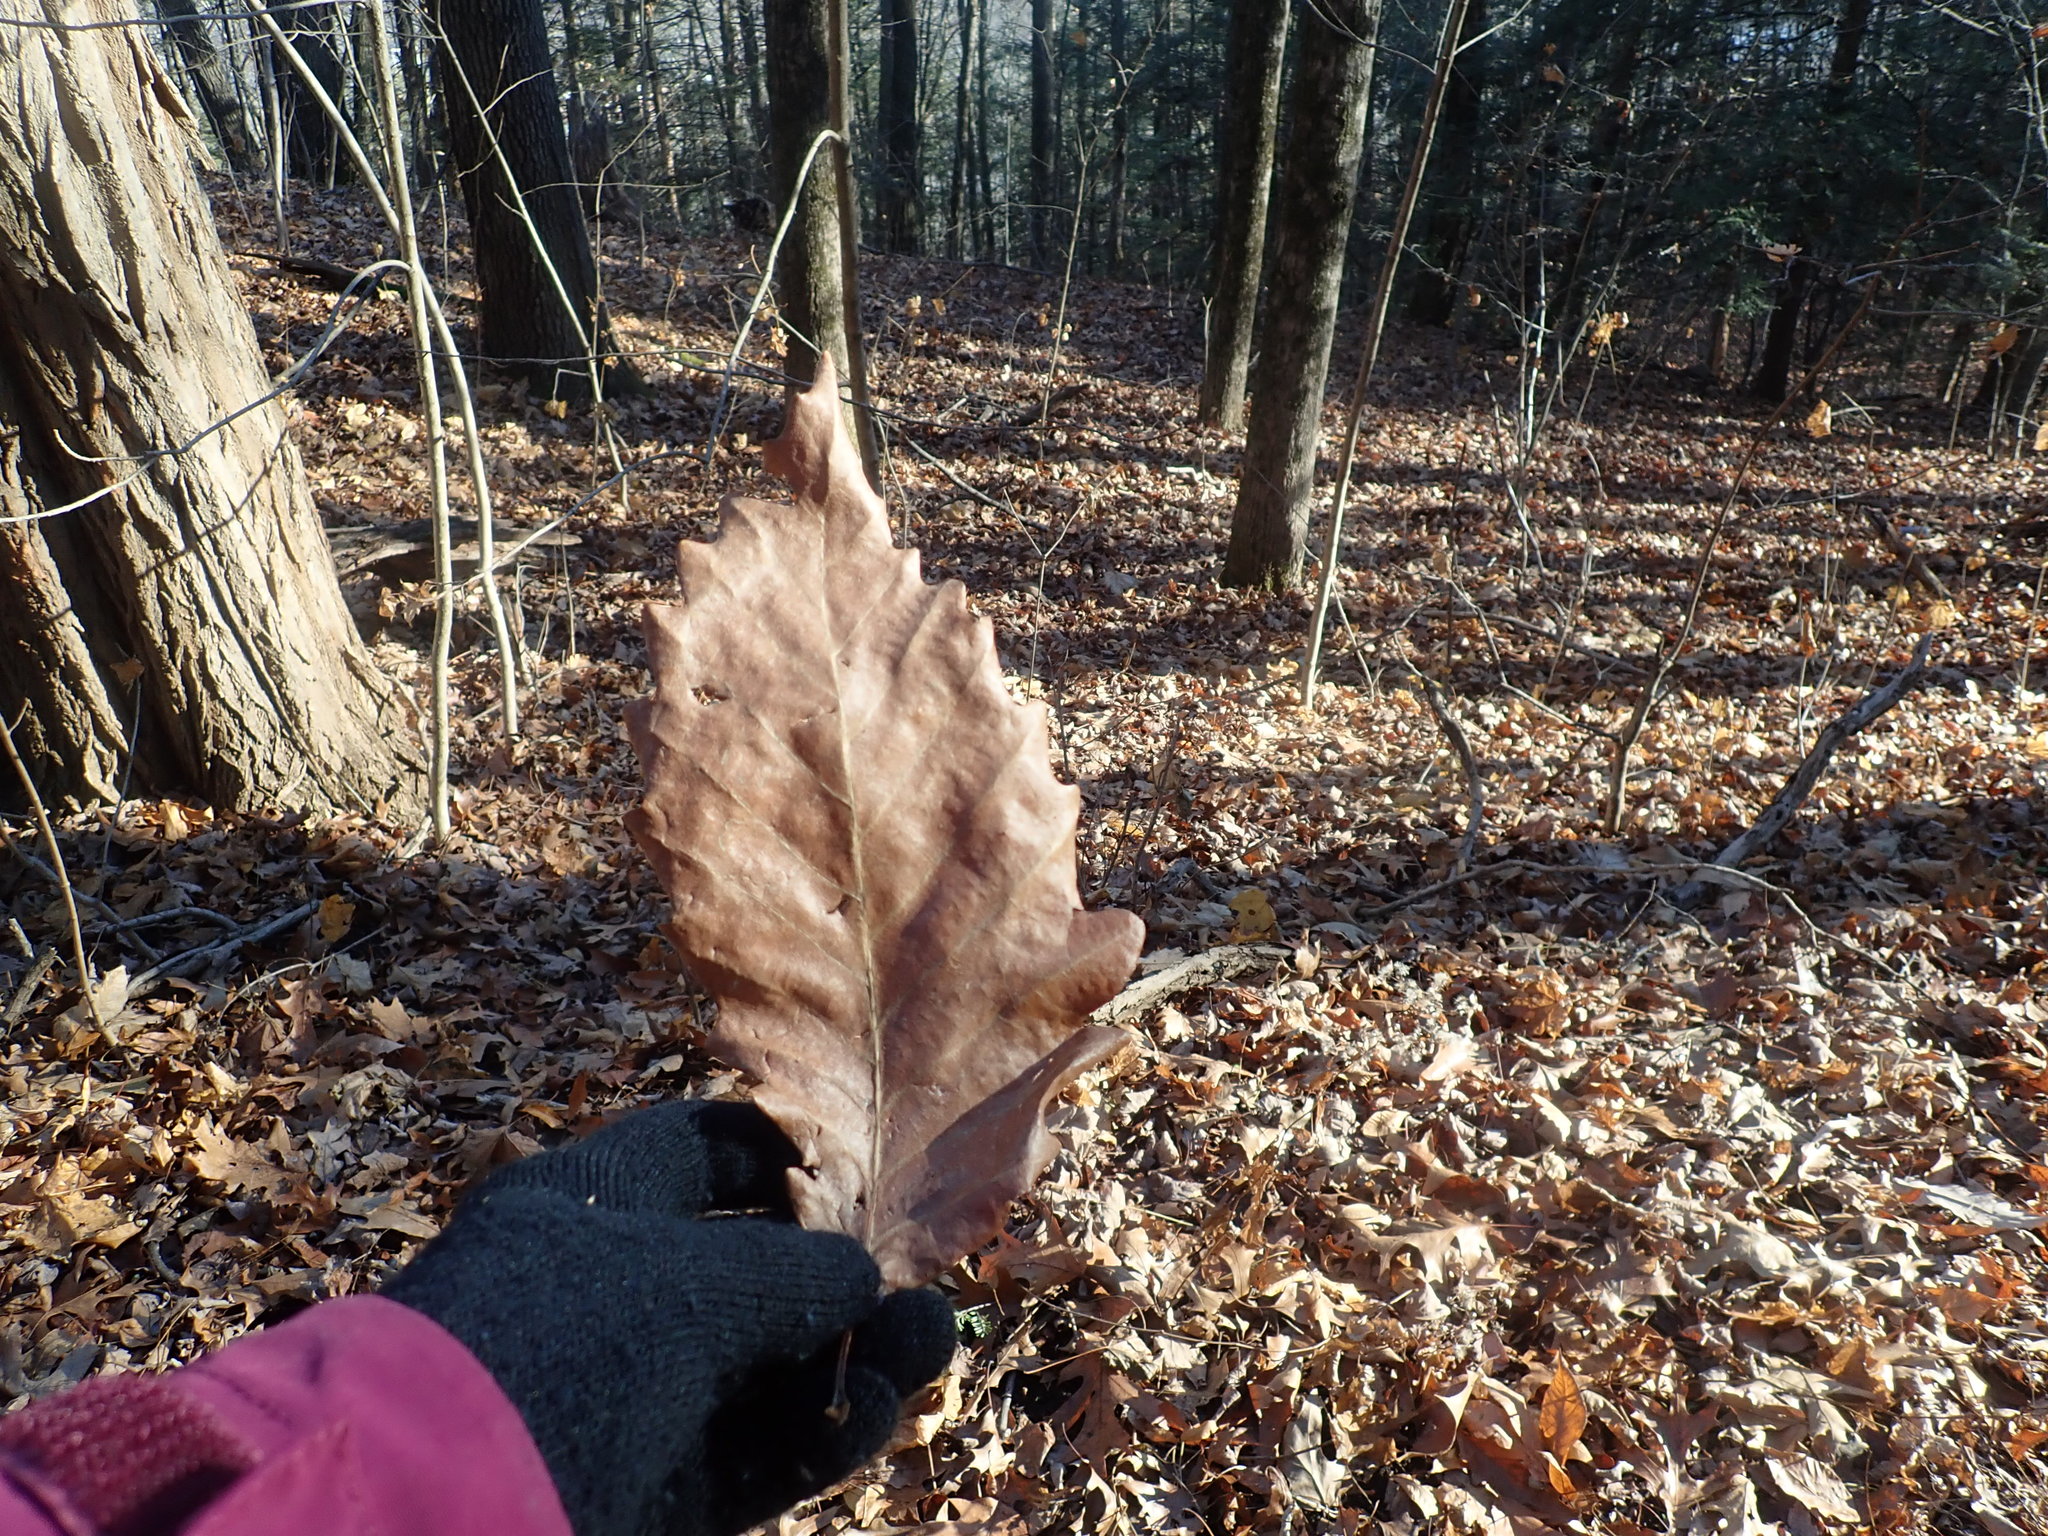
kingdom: Plantae
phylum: Tracheophyta
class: Magnoliopsida
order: Fagales
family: Fagaceae
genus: Quercus
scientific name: Quercus montana
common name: Chestnut oak
